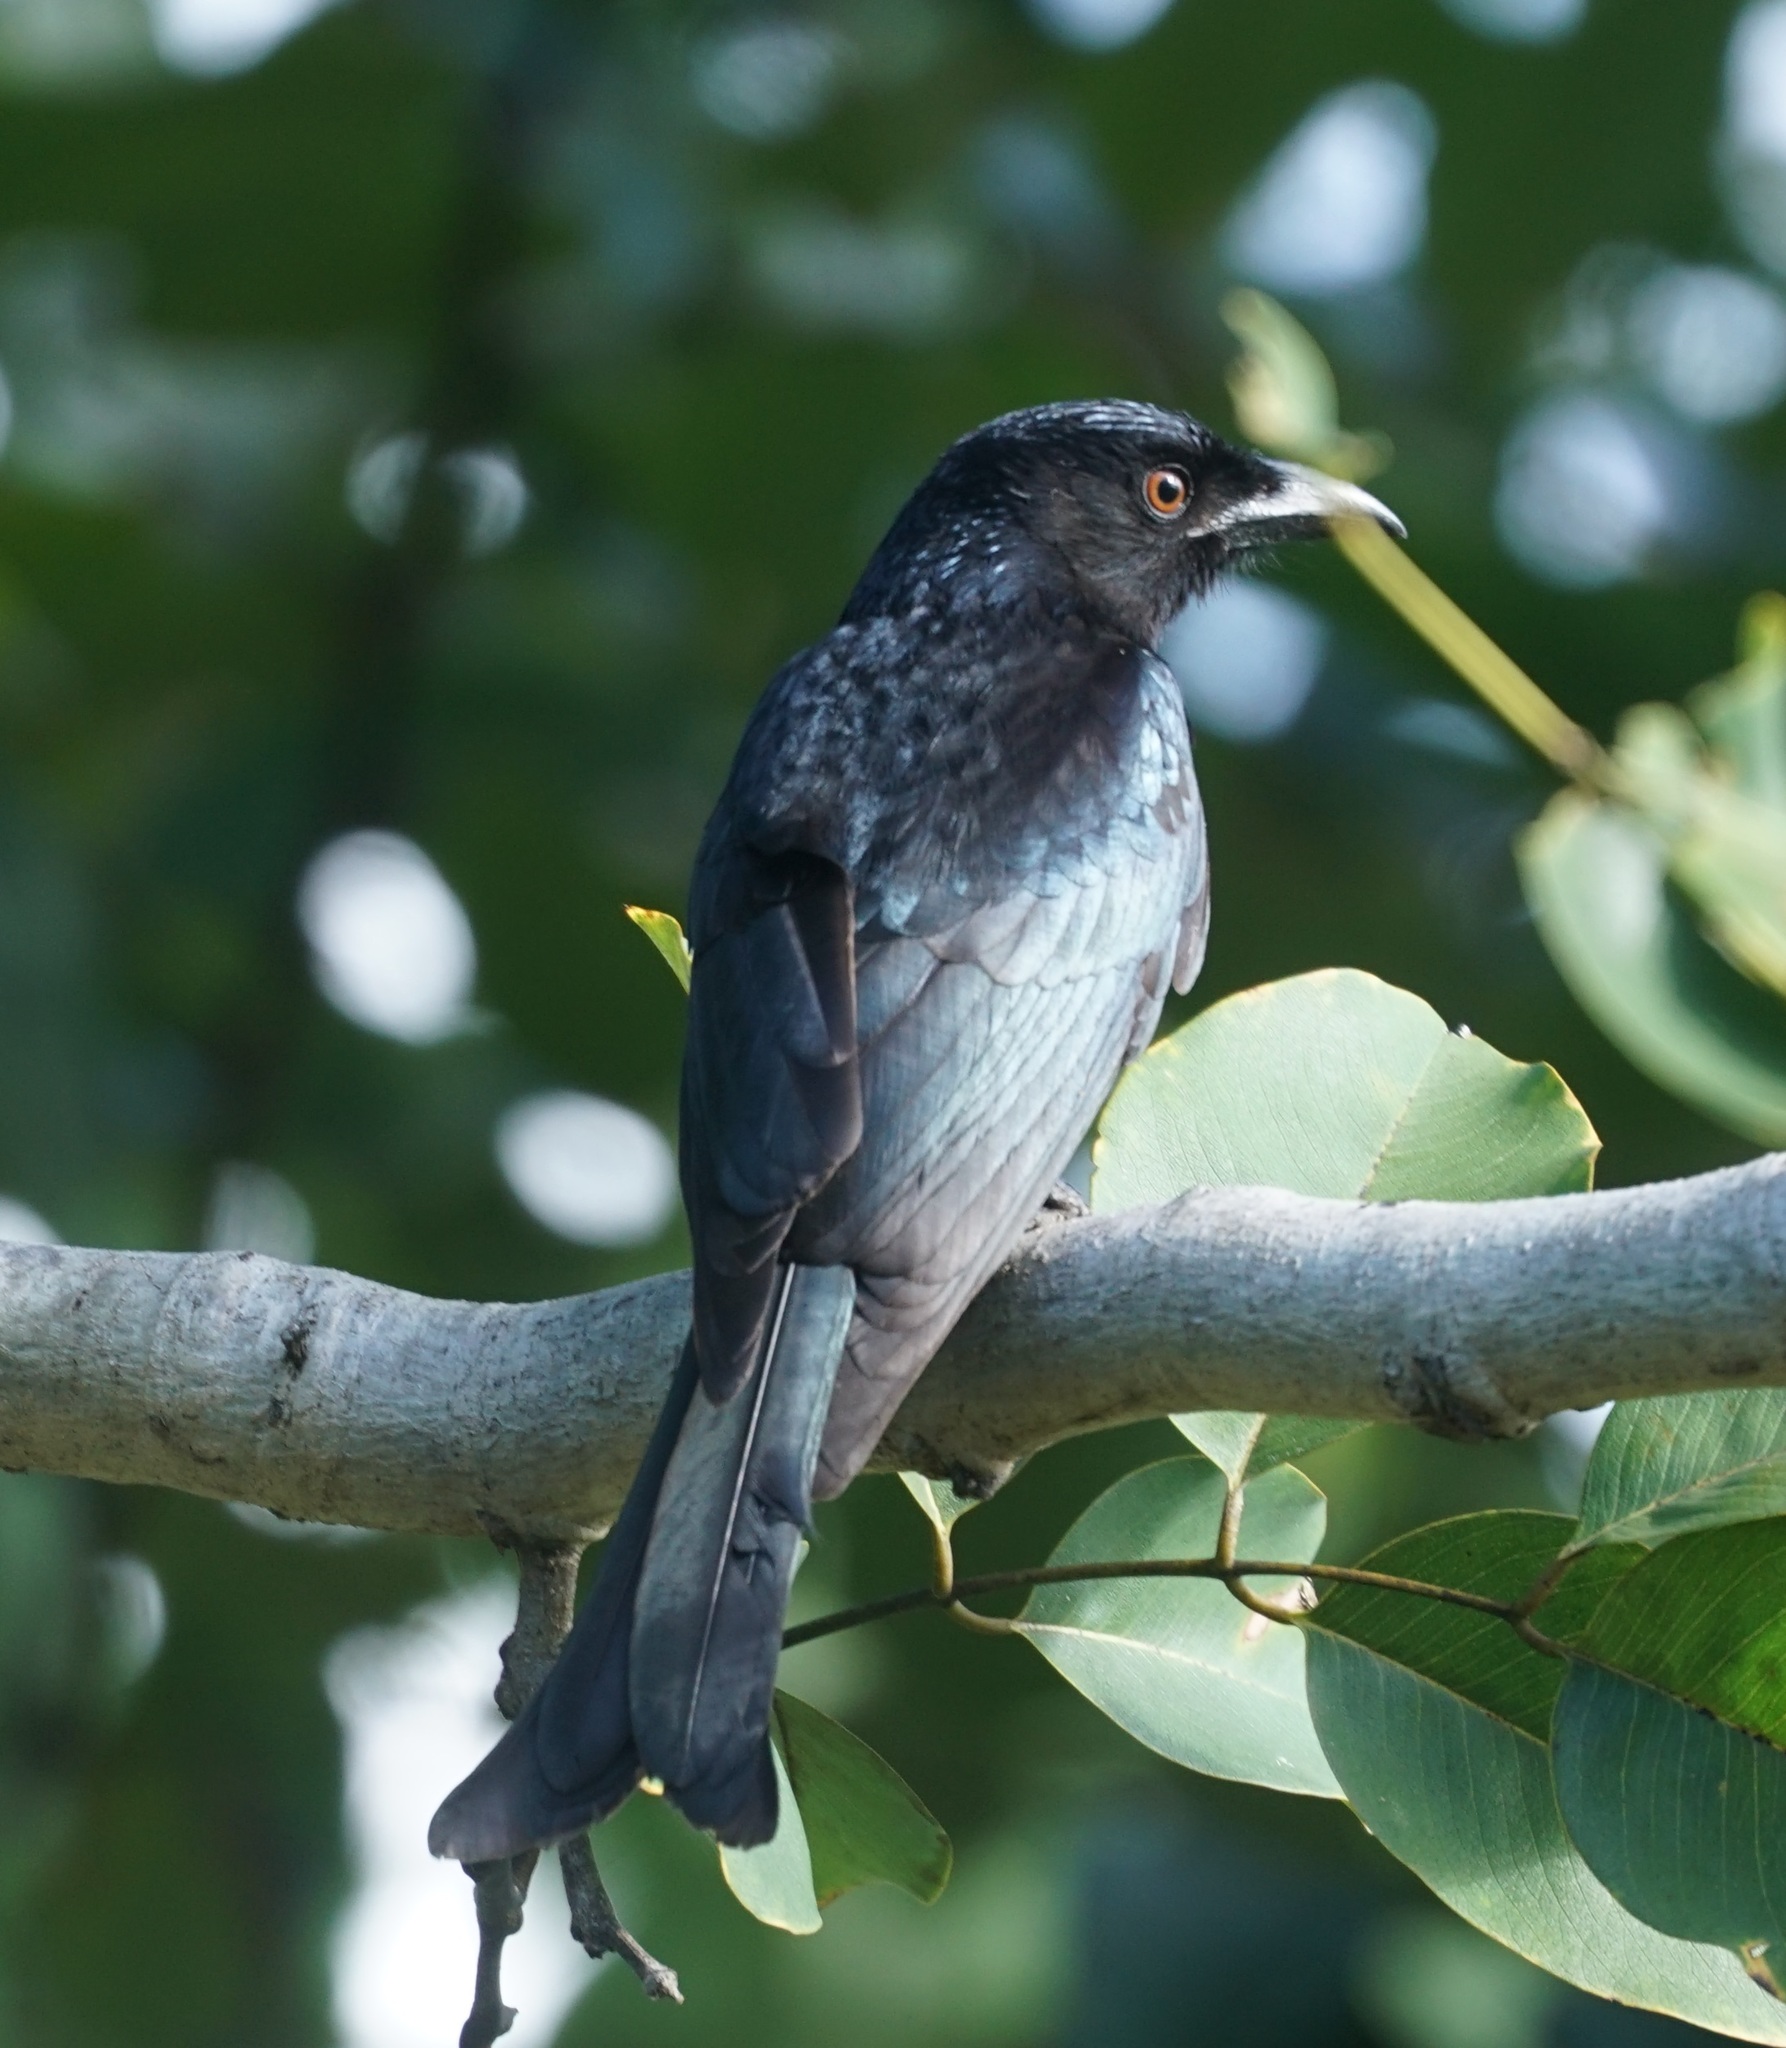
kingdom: Animalia
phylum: Chordata
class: Aves
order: Passeriformes
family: Dicruridae
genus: Dicrurus
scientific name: Dicrurus bracteatus
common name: Spangled drongo
